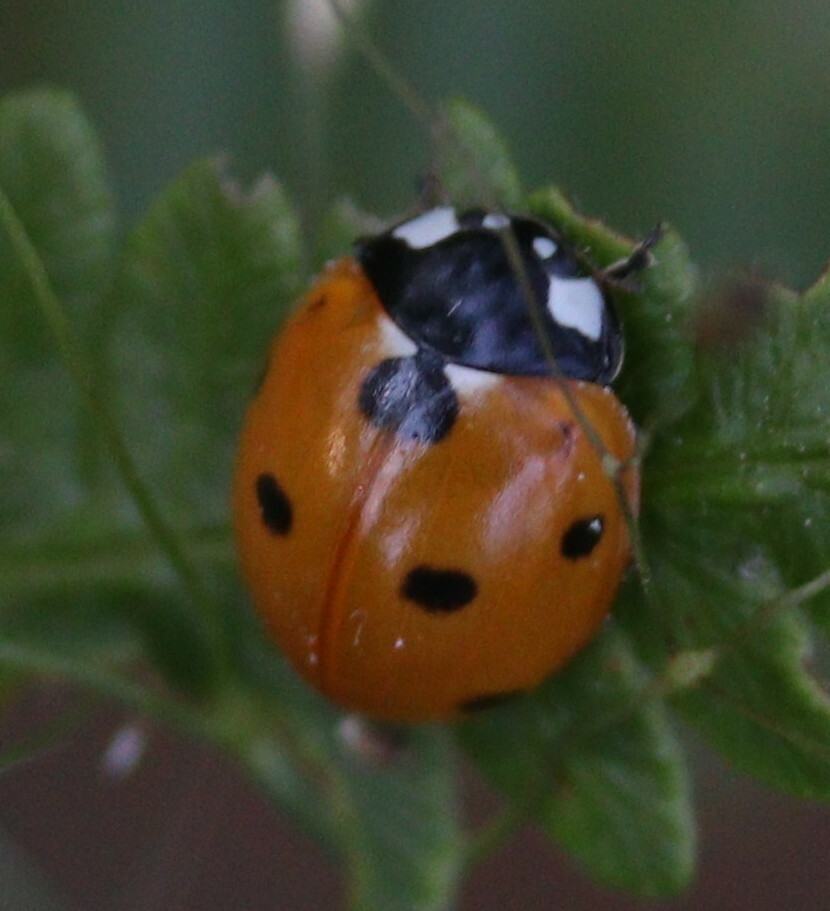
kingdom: Animalia
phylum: Arthropoda
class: Insecta
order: Coleoptera
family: Coccinellidae
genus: Coccinella
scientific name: Coccinella septempunctata
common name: Sevenspotted lady beetle
